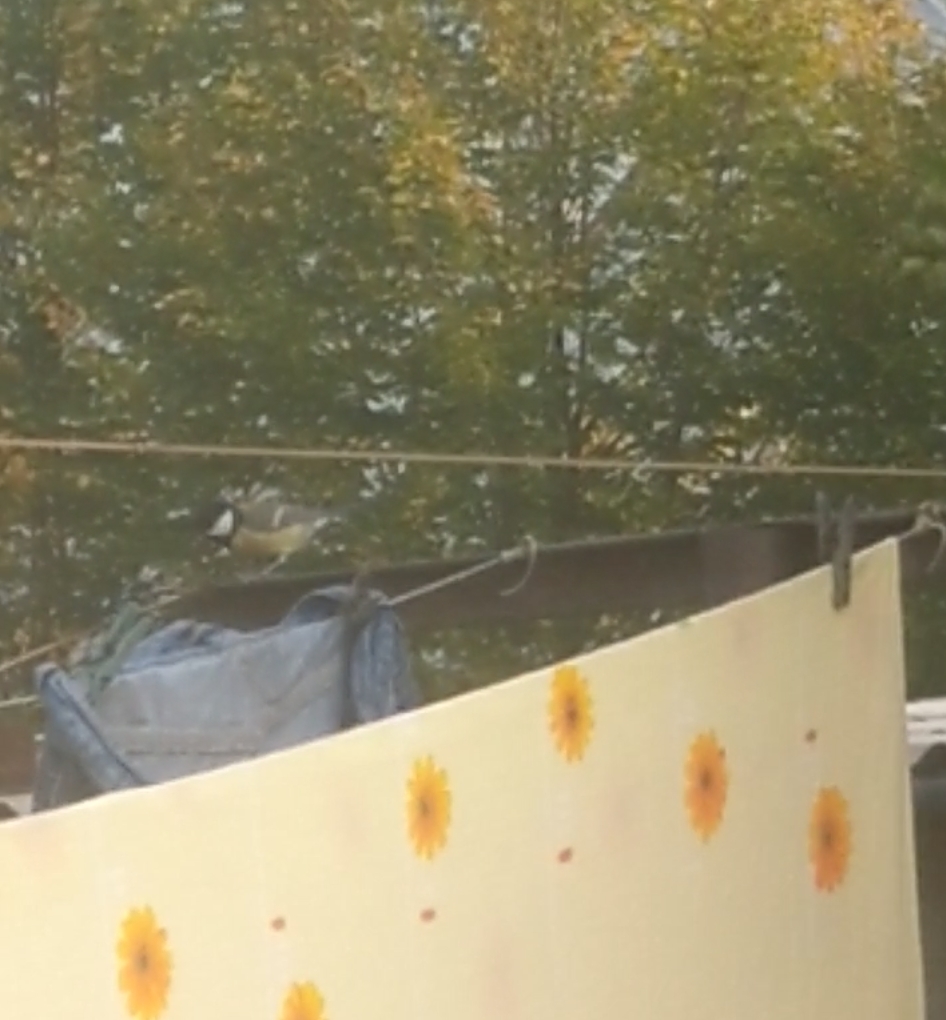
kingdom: Animalia
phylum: Chordata
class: Aves
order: Passeriformes
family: Paridae
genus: Parus
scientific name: Parus major
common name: Great tit
